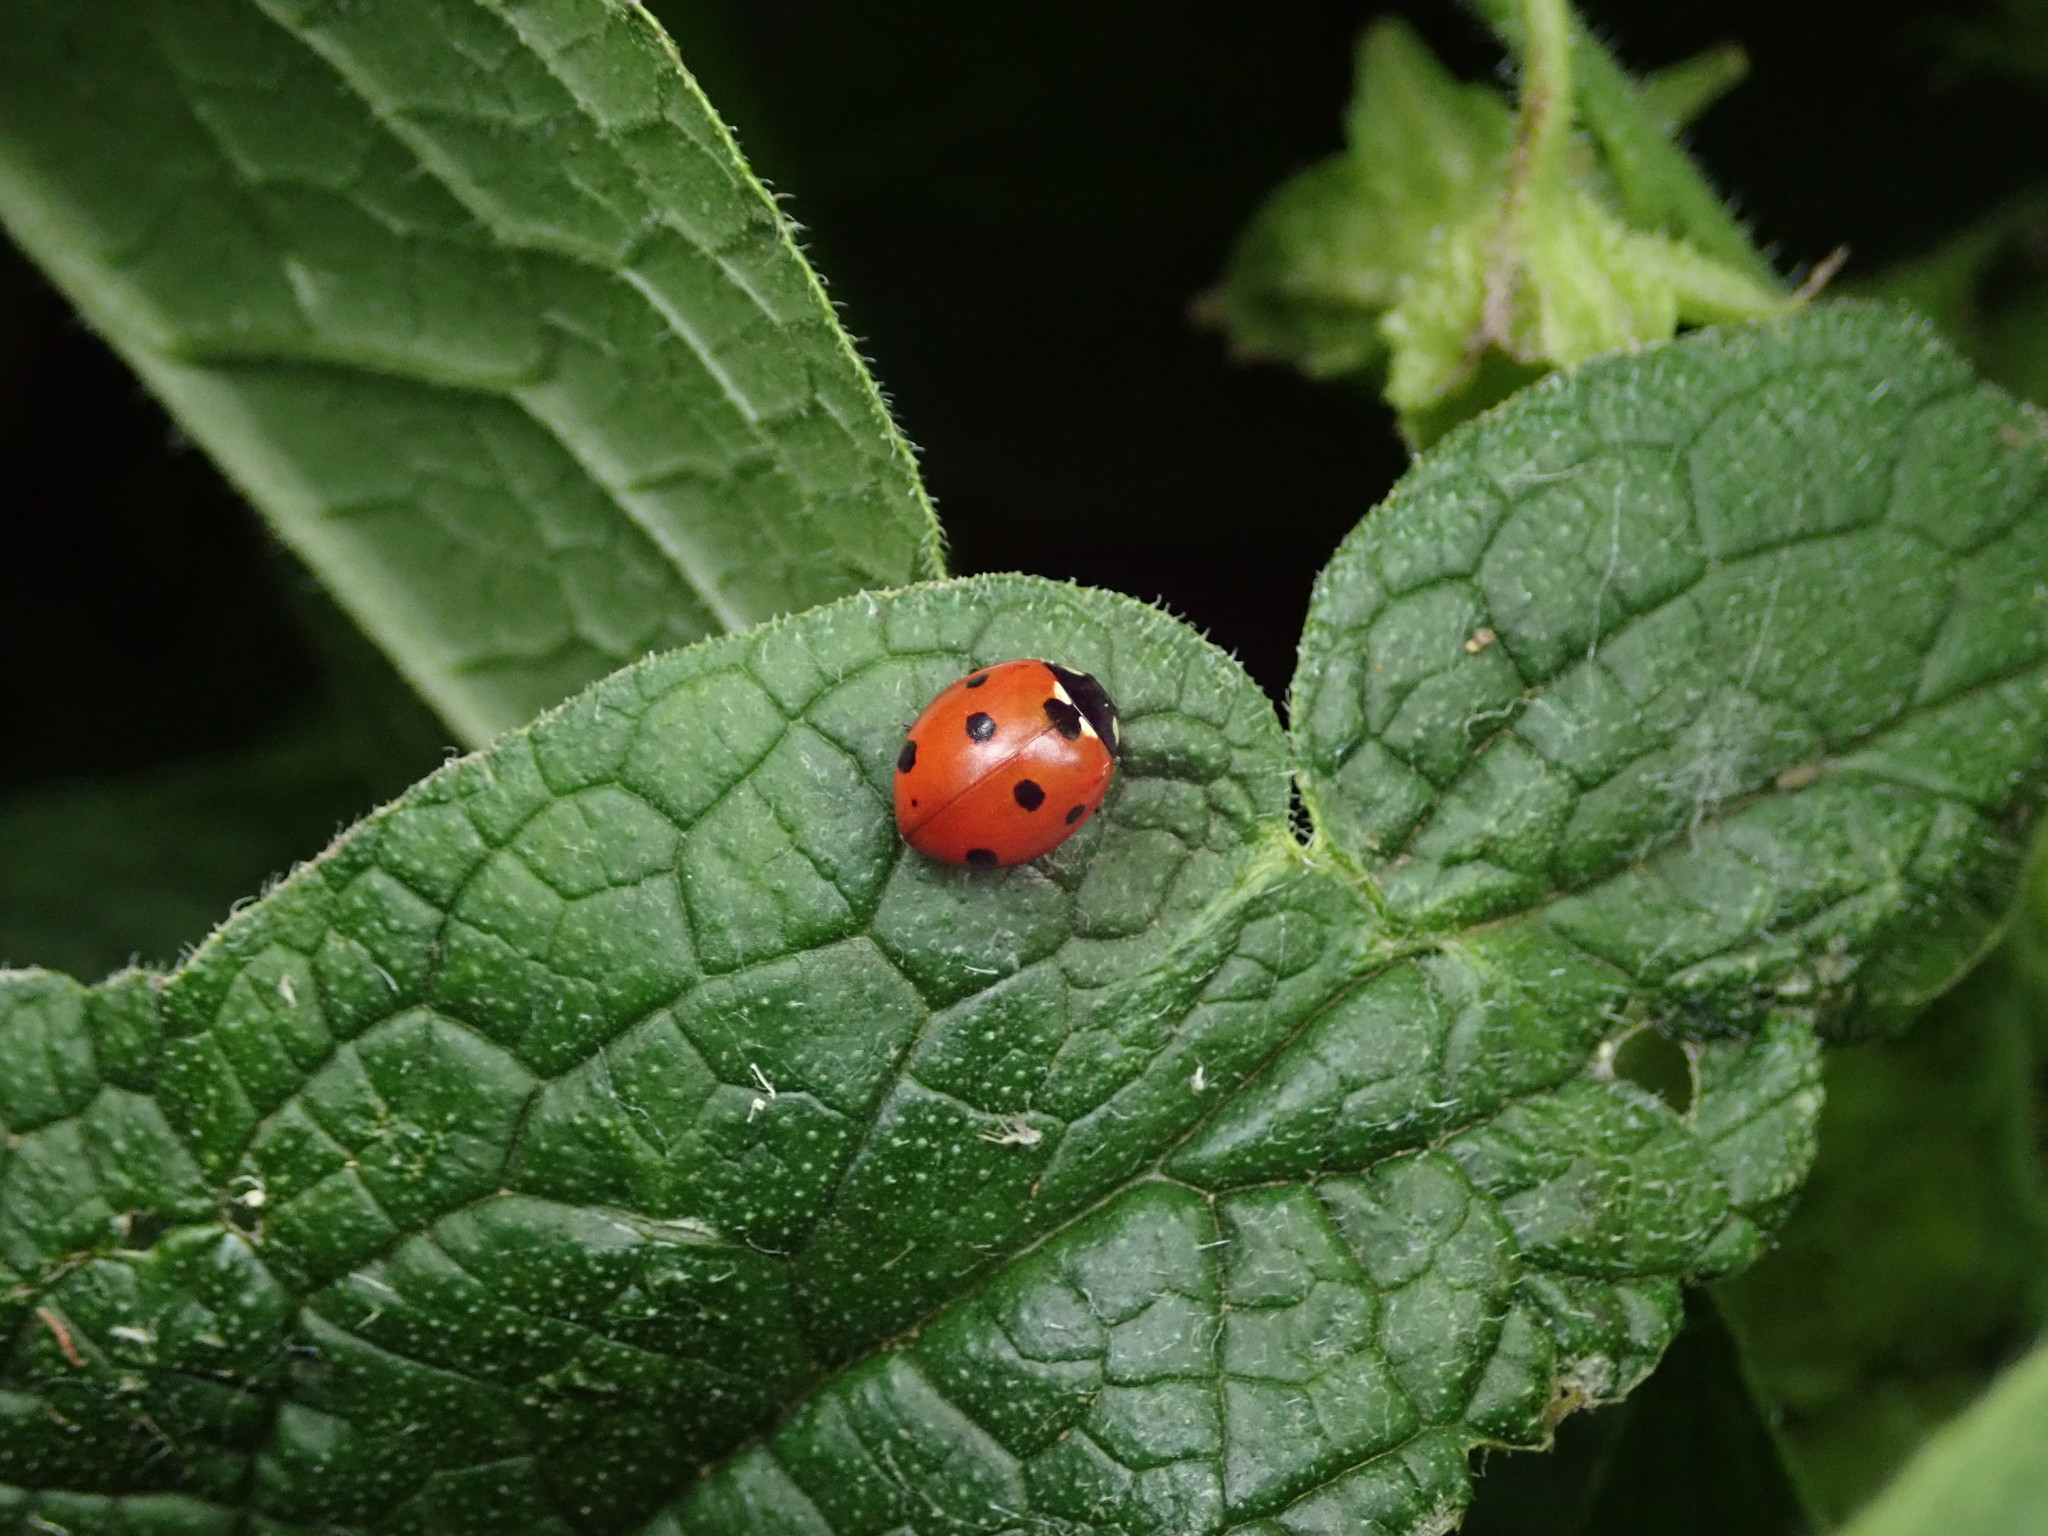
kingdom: Animalia
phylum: Arthropoda
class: Insecta
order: Coleoptera
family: Coccinellidae
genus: Coccinella
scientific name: Coccinella septempunctata
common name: Sevenspotted lady beetle
